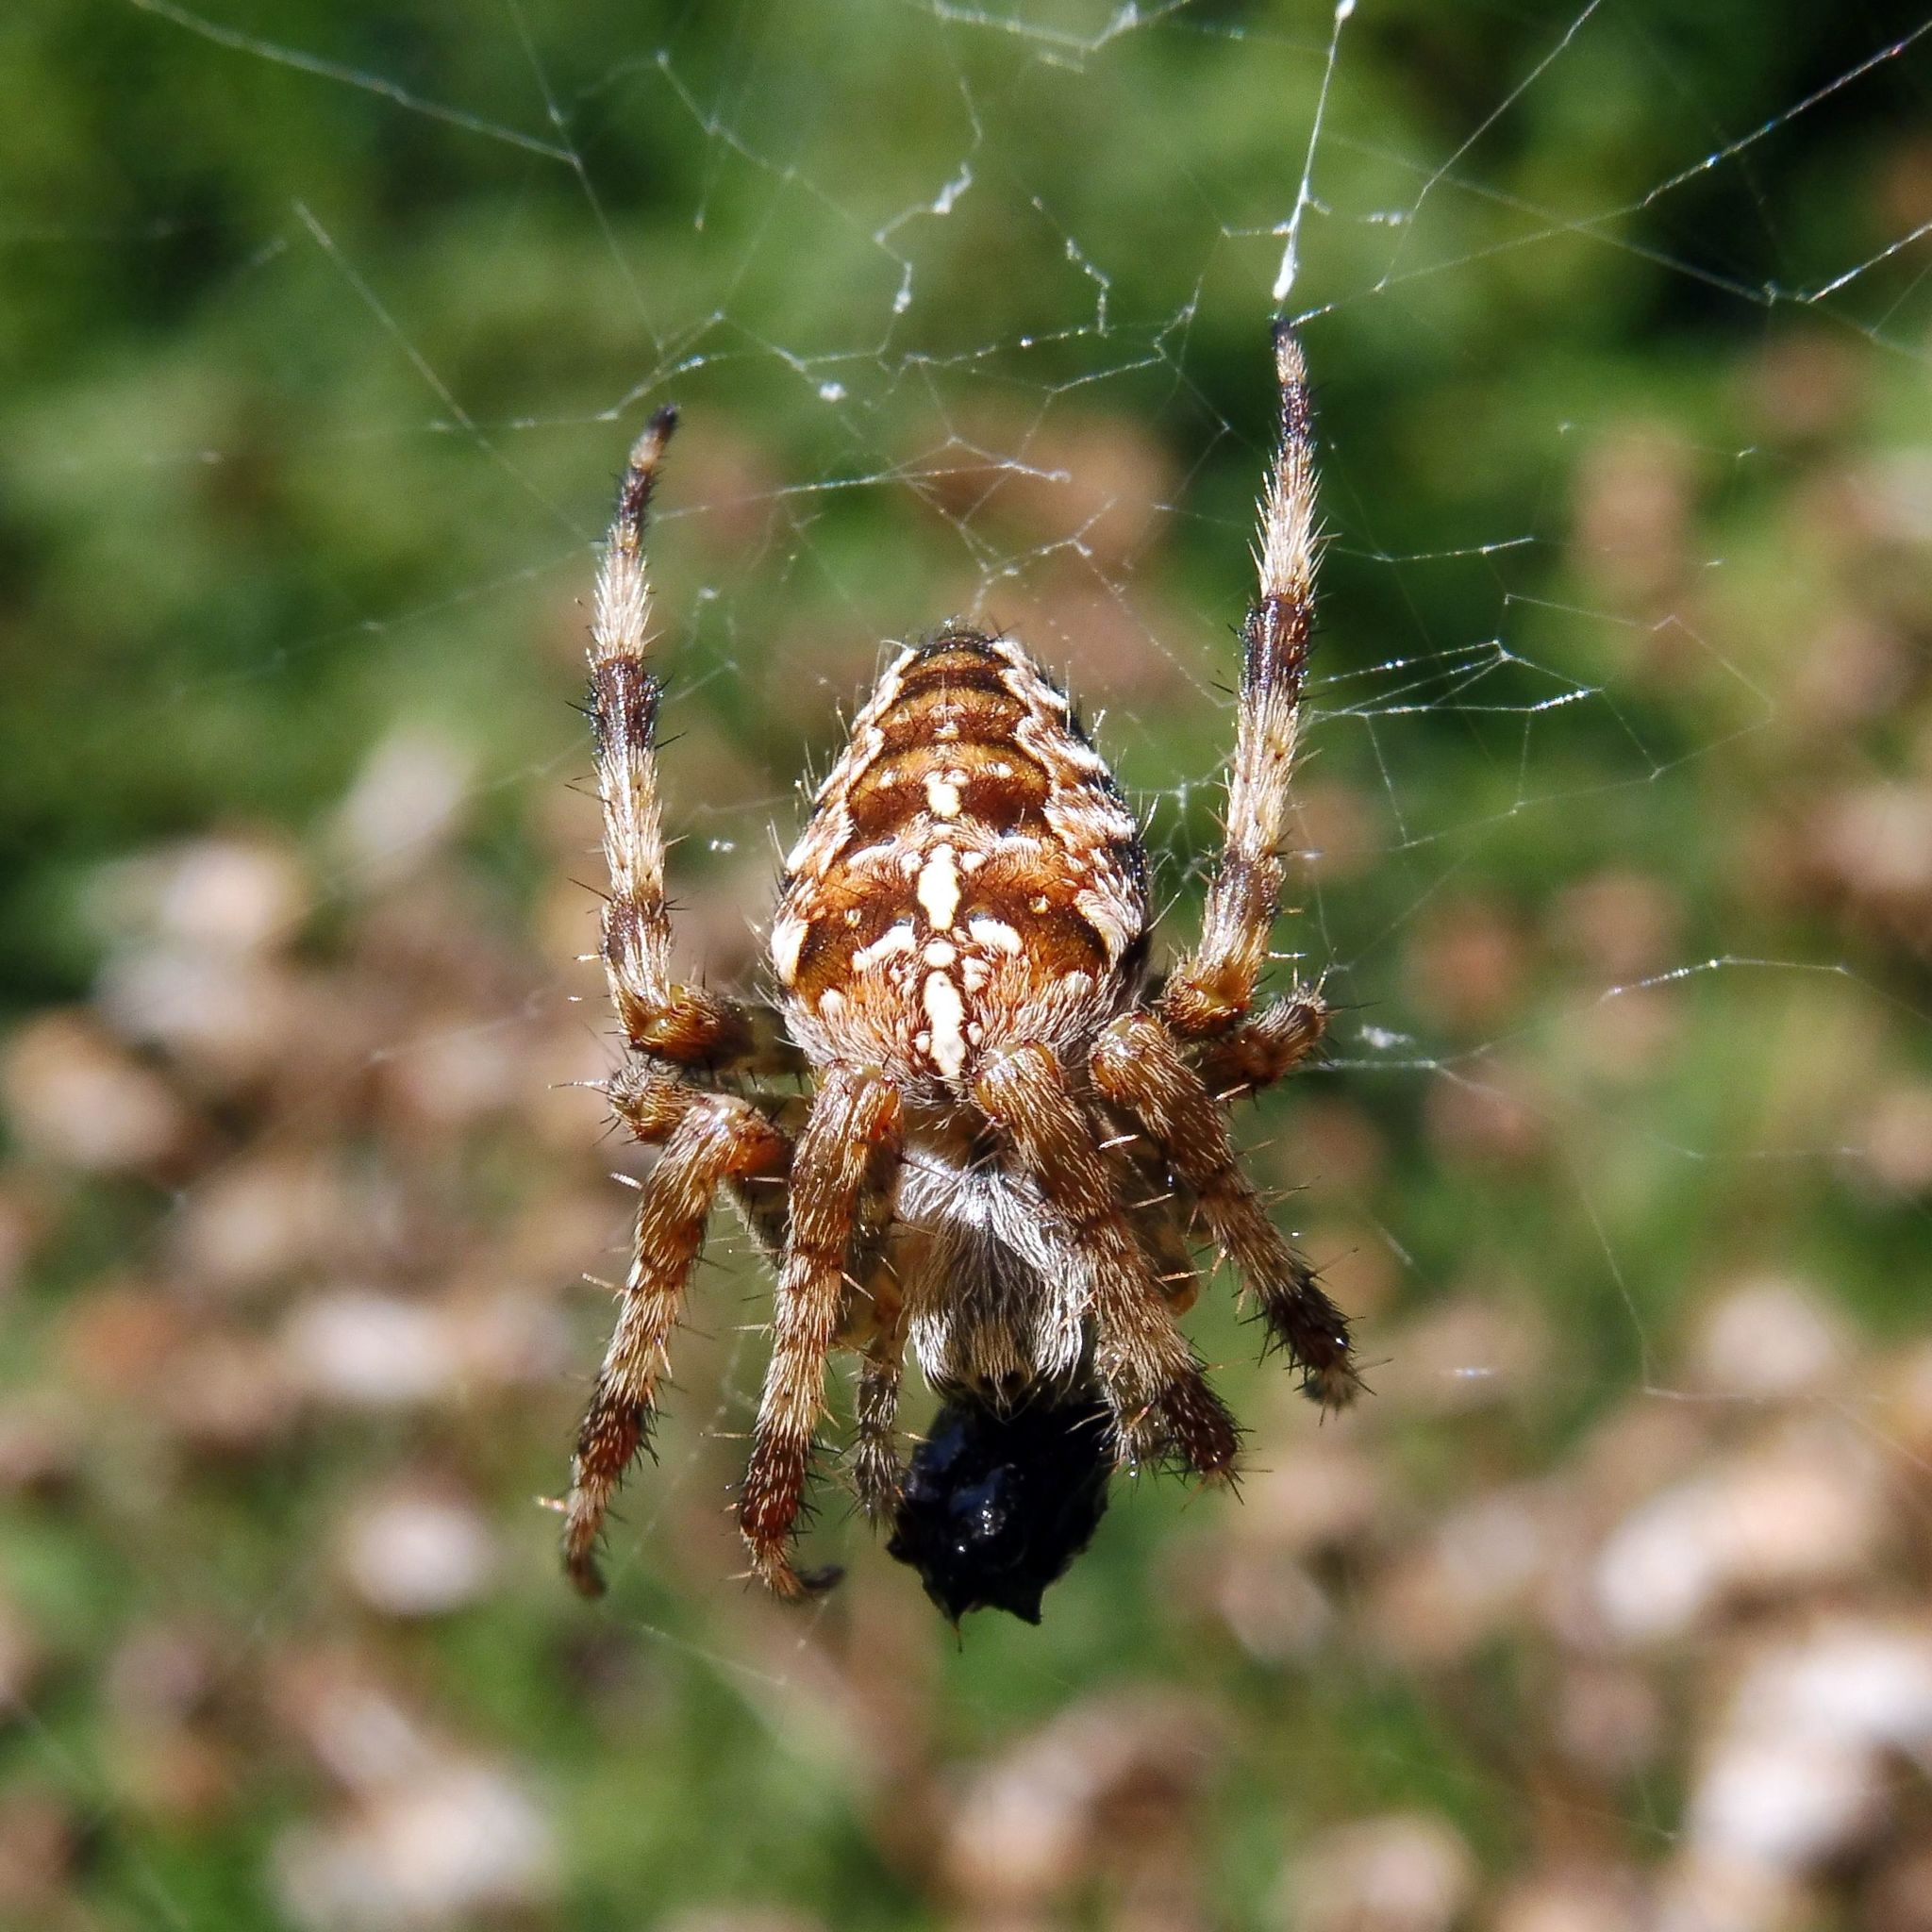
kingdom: Animalia
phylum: Arthropoda
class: Arachnida
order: Araneae
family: Araneidae
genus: Araneus
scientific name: Araneus diadematus
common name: Cross orbweaver
